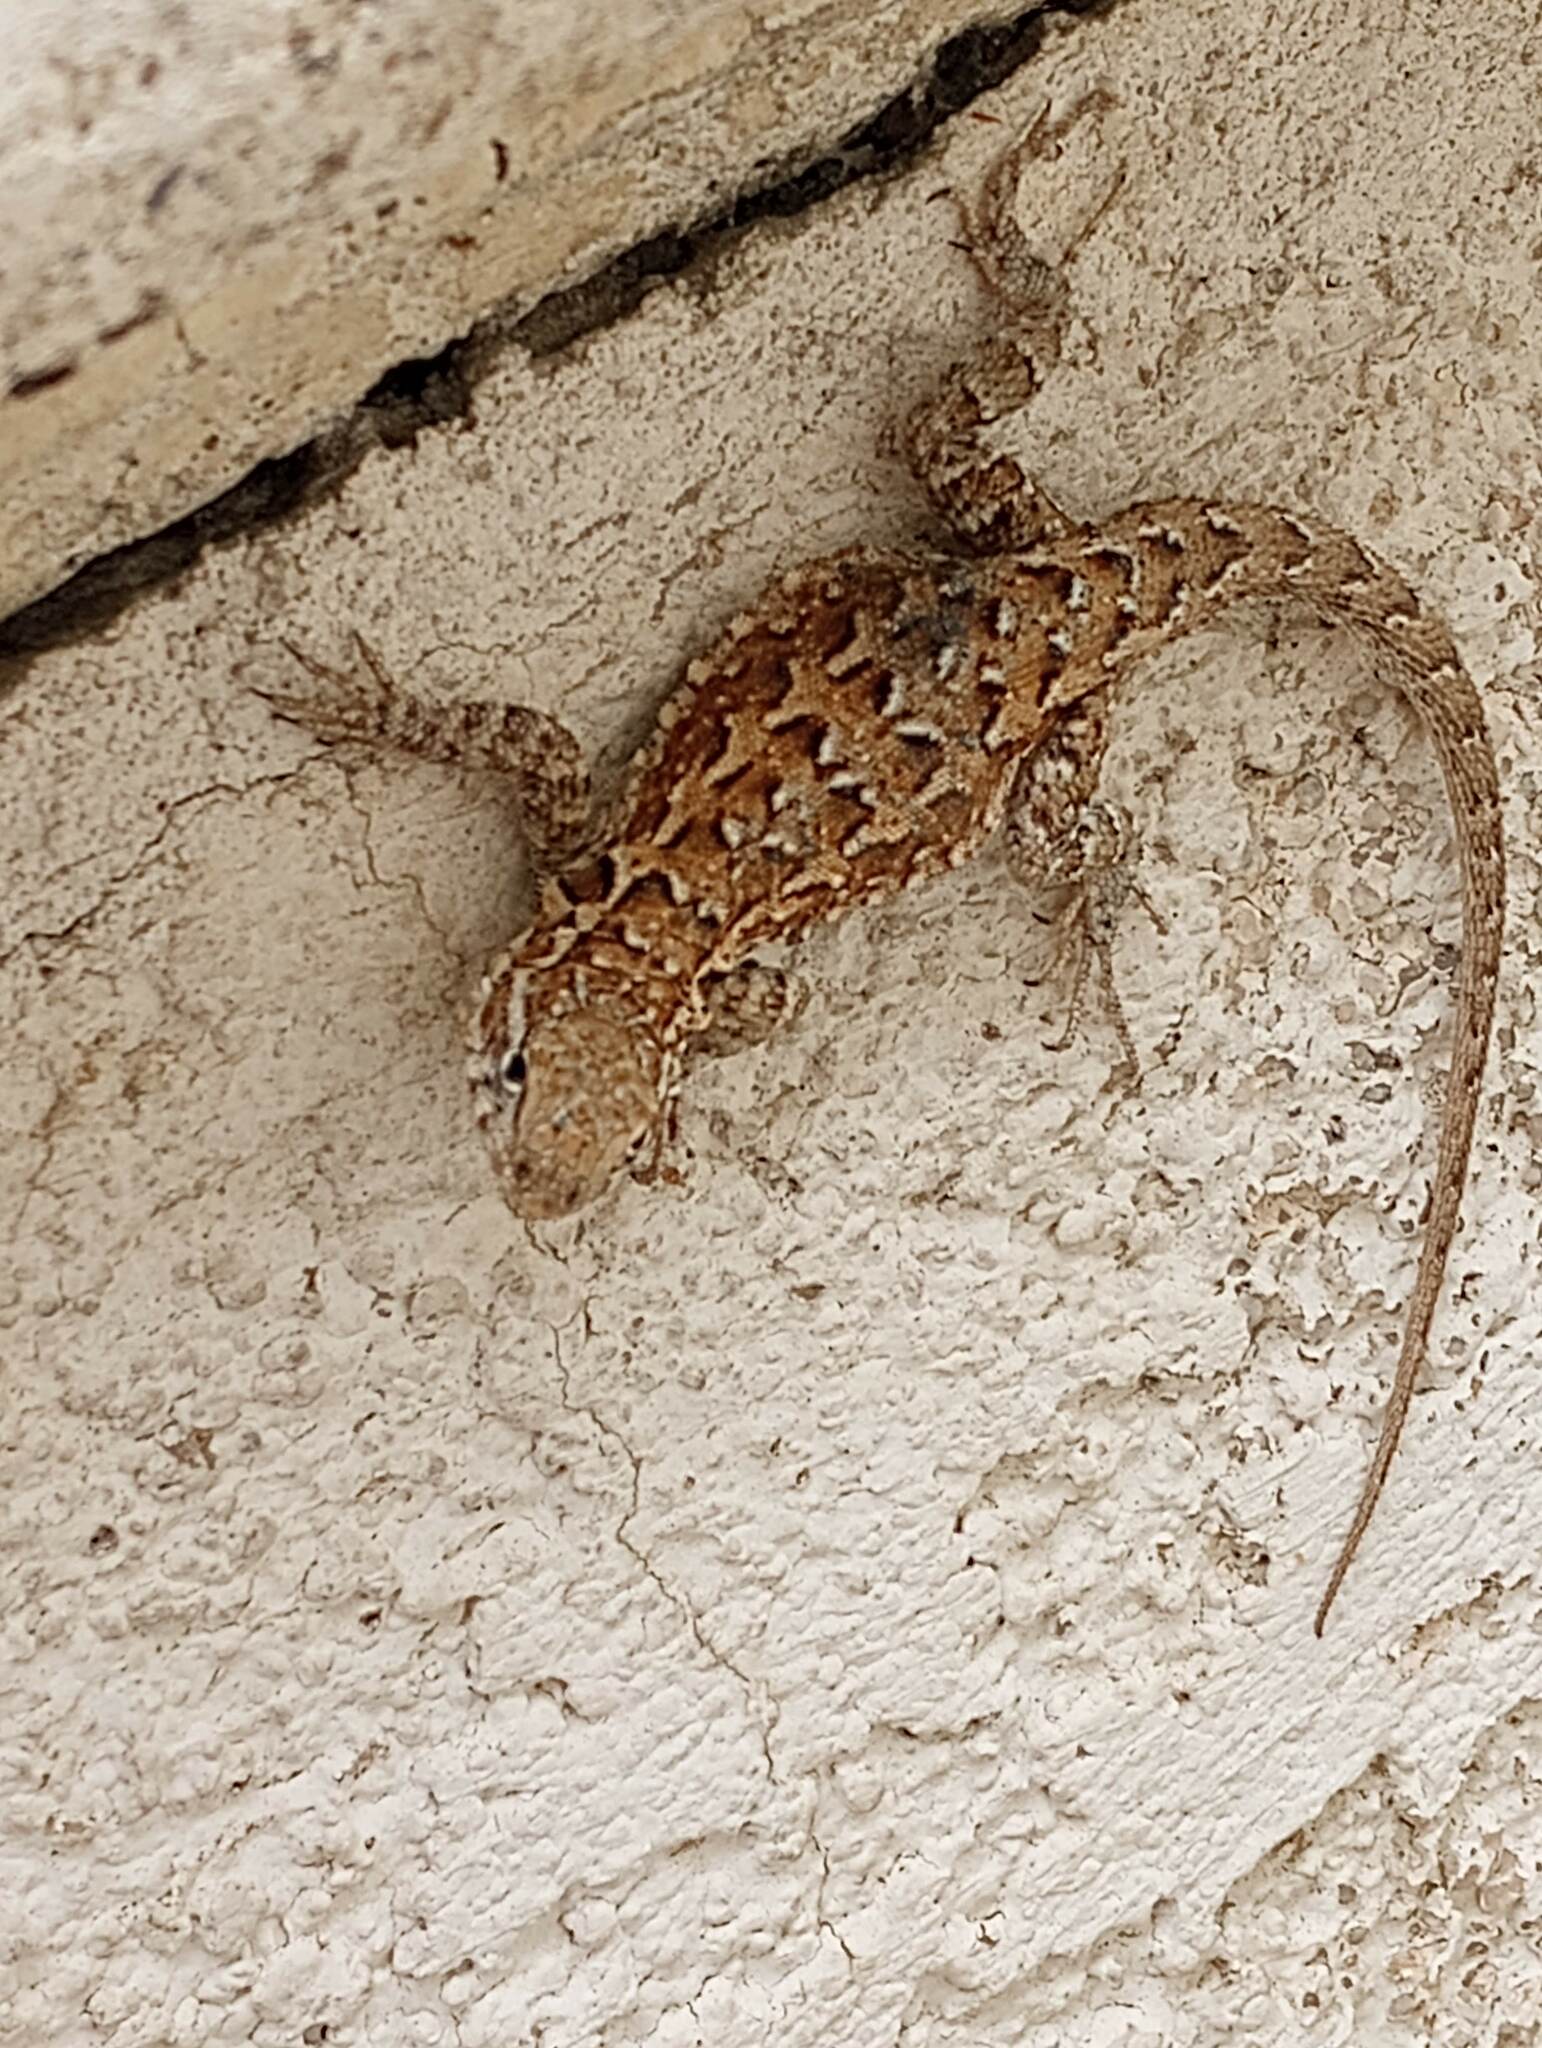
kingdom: Animalia
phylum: Chordata
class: Squamata
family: Phrynosomatidae
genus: Uta
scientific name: Uta stansburiana
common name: Side-blotched lizard
